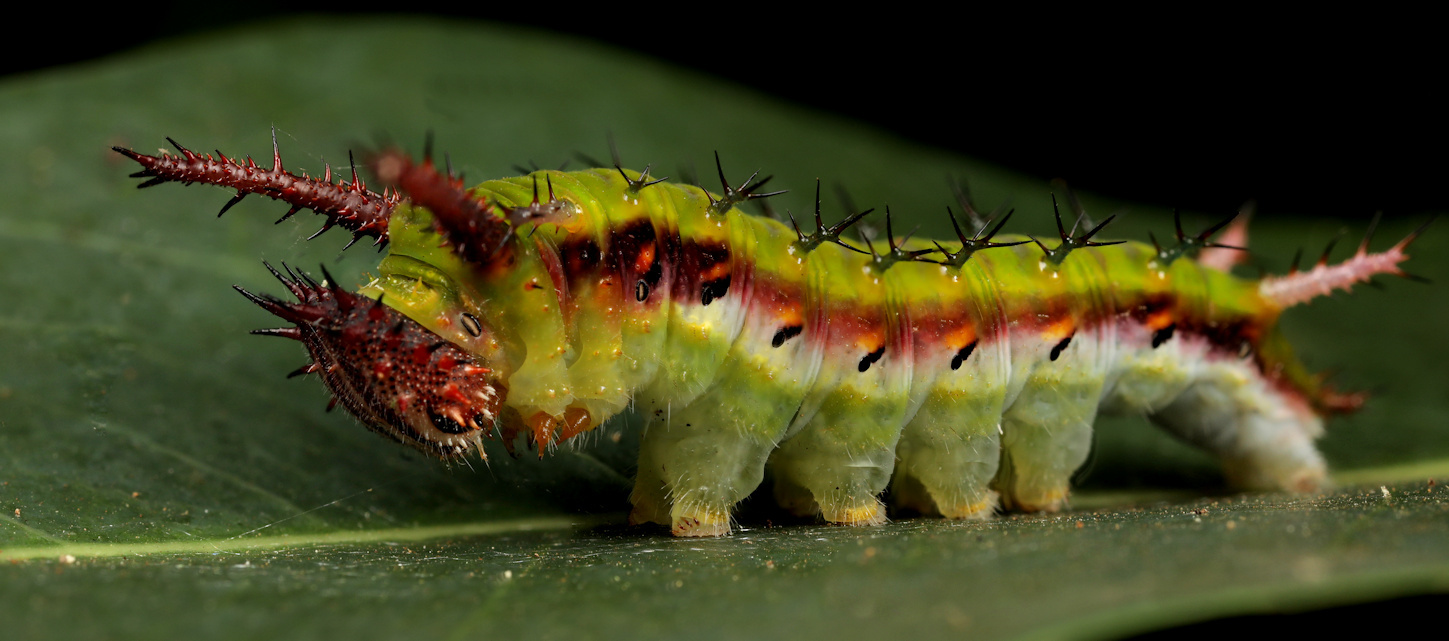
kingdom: Animalia
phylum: Arthropoda
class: Insecta
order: Lepidoptera
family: Nymphalidae
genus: Chloropoea
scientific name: Chloropoea lucretia
